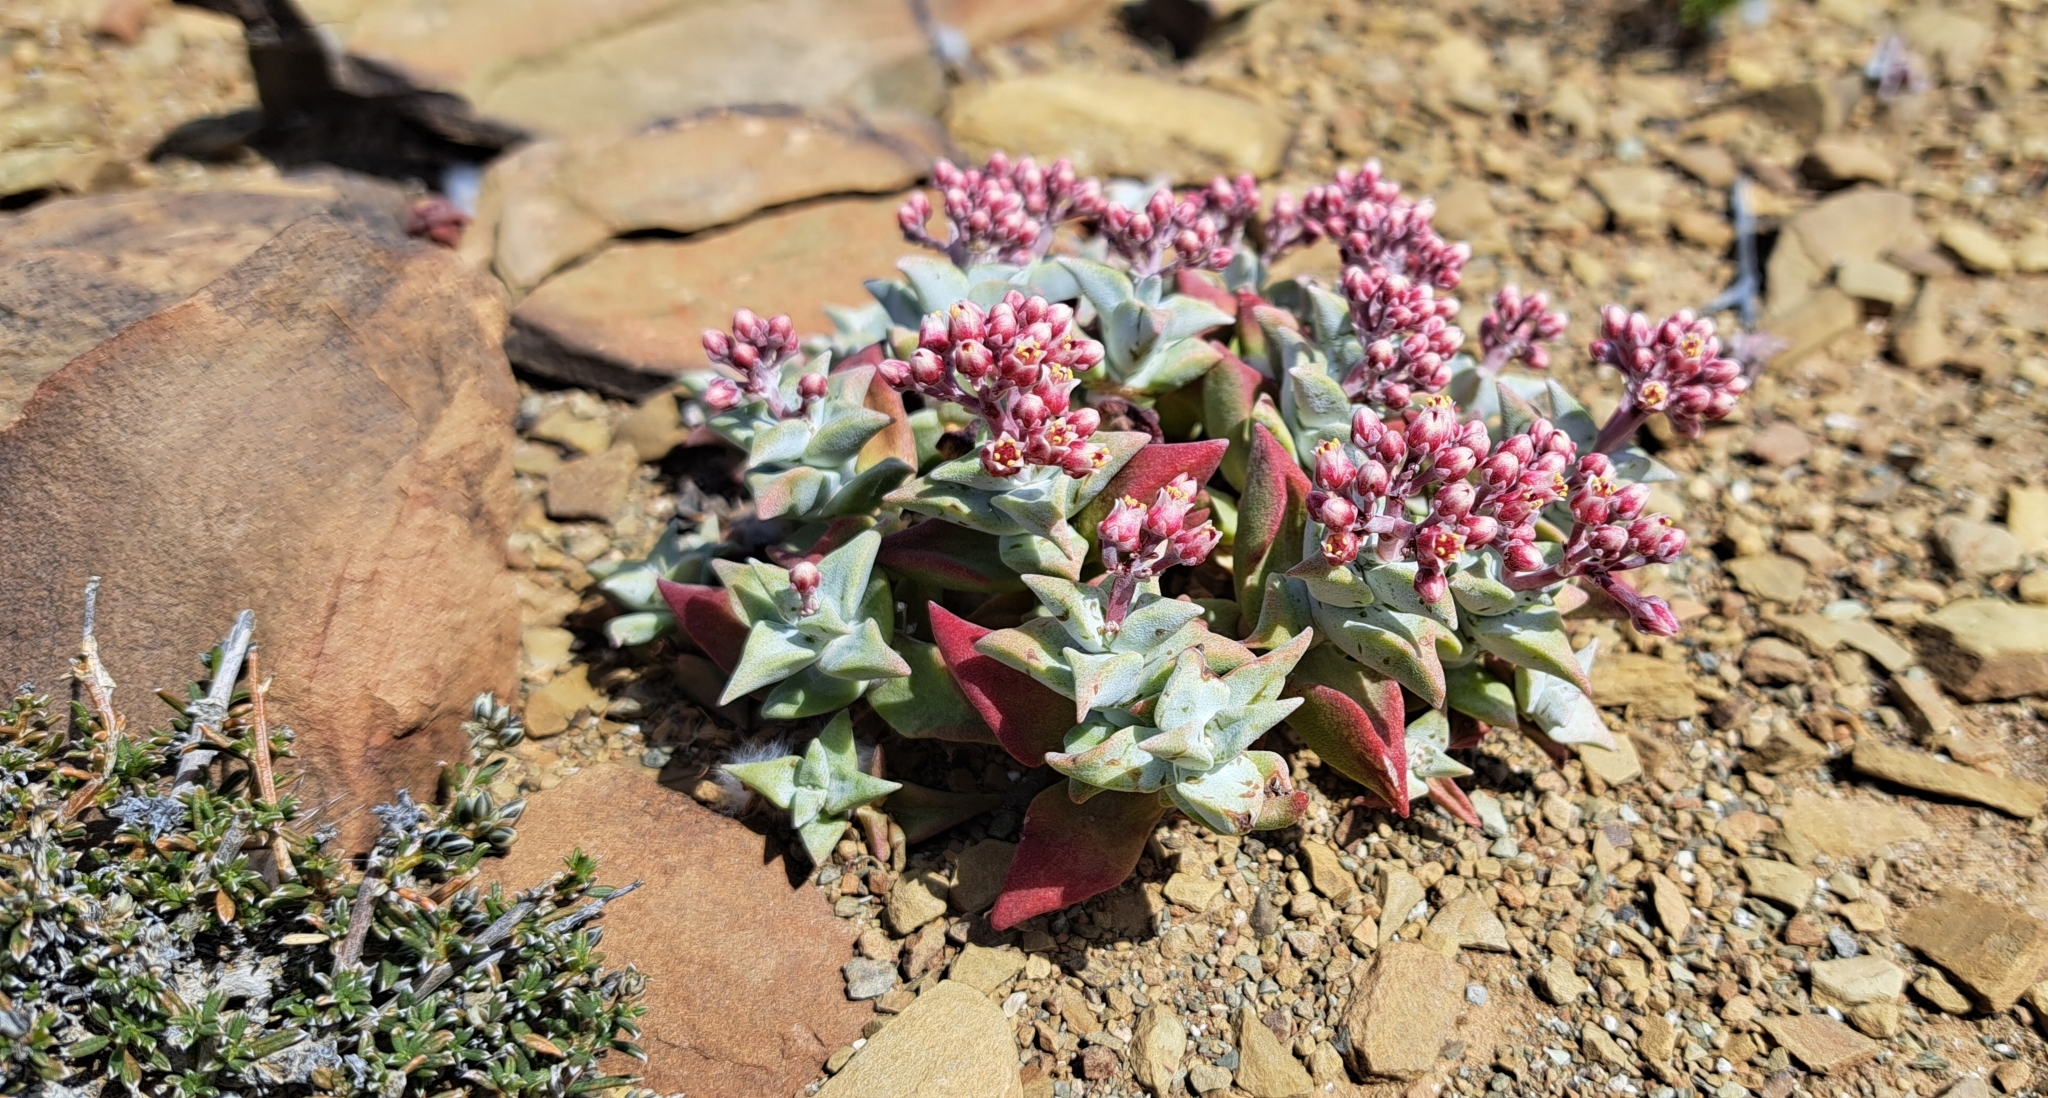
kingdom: Plantae
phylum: Tracheophyta
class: Magnoliopsida
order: Saxifragales
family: Crassulaceae
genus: Crassula
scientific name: Crassula deltoidea
